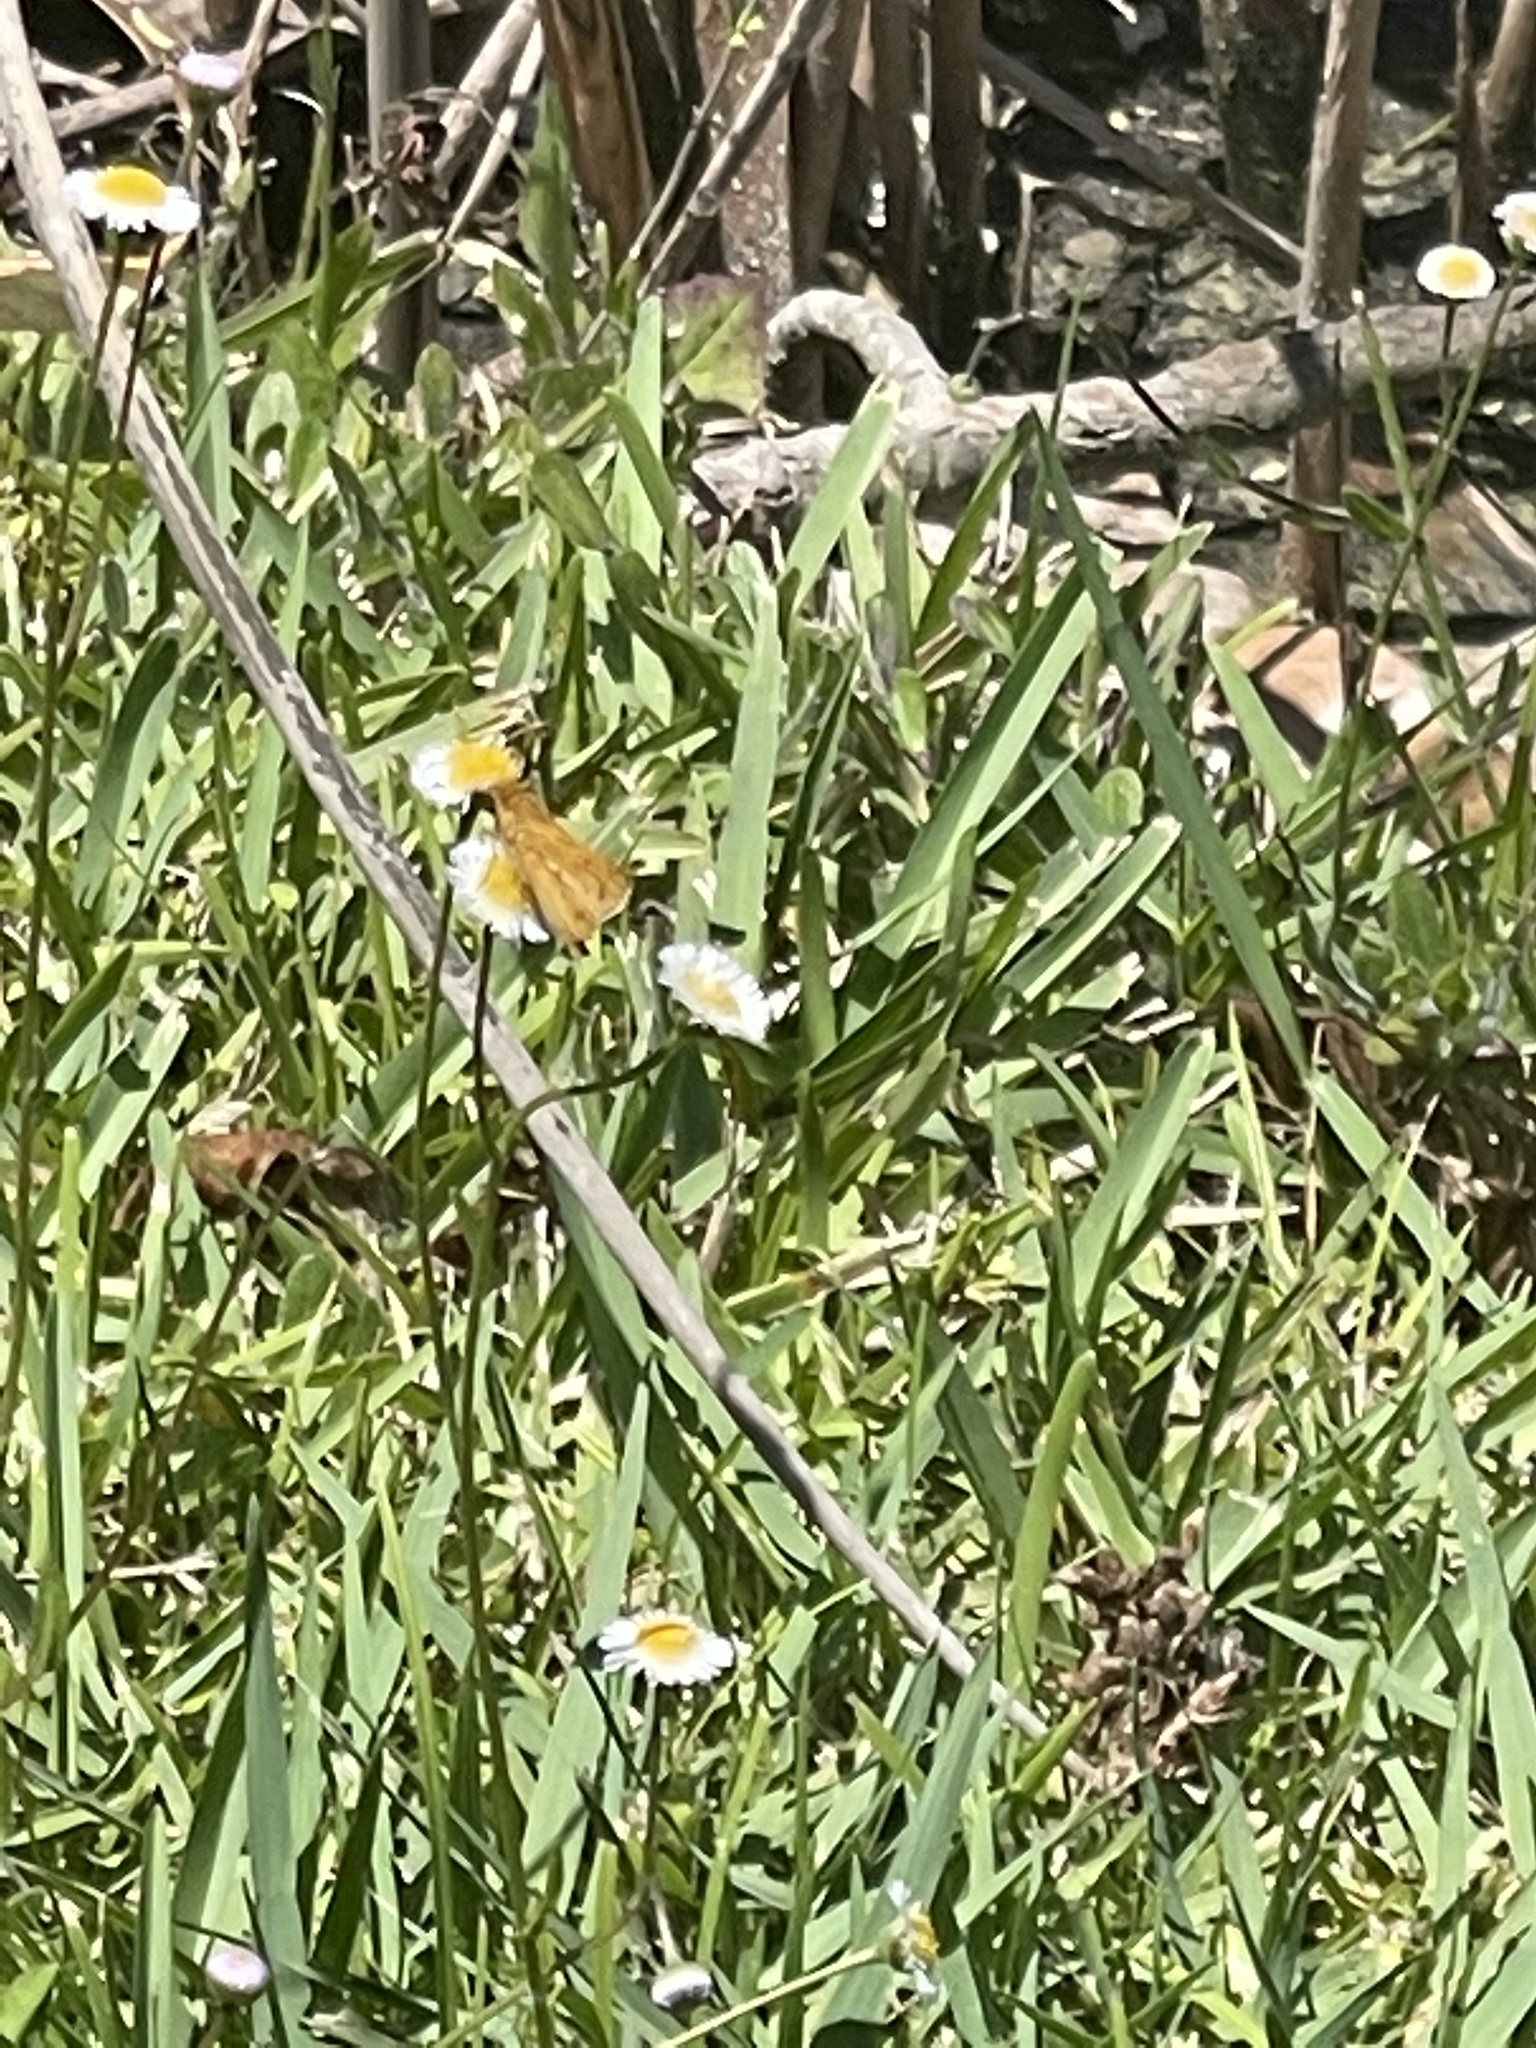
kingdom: Animalia
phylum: Arthropoda
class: Insecta
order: Lepidoptera
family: Hesperiidae
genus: Hylephila
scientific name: Hylephila phyleus
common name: Fiery skipper
